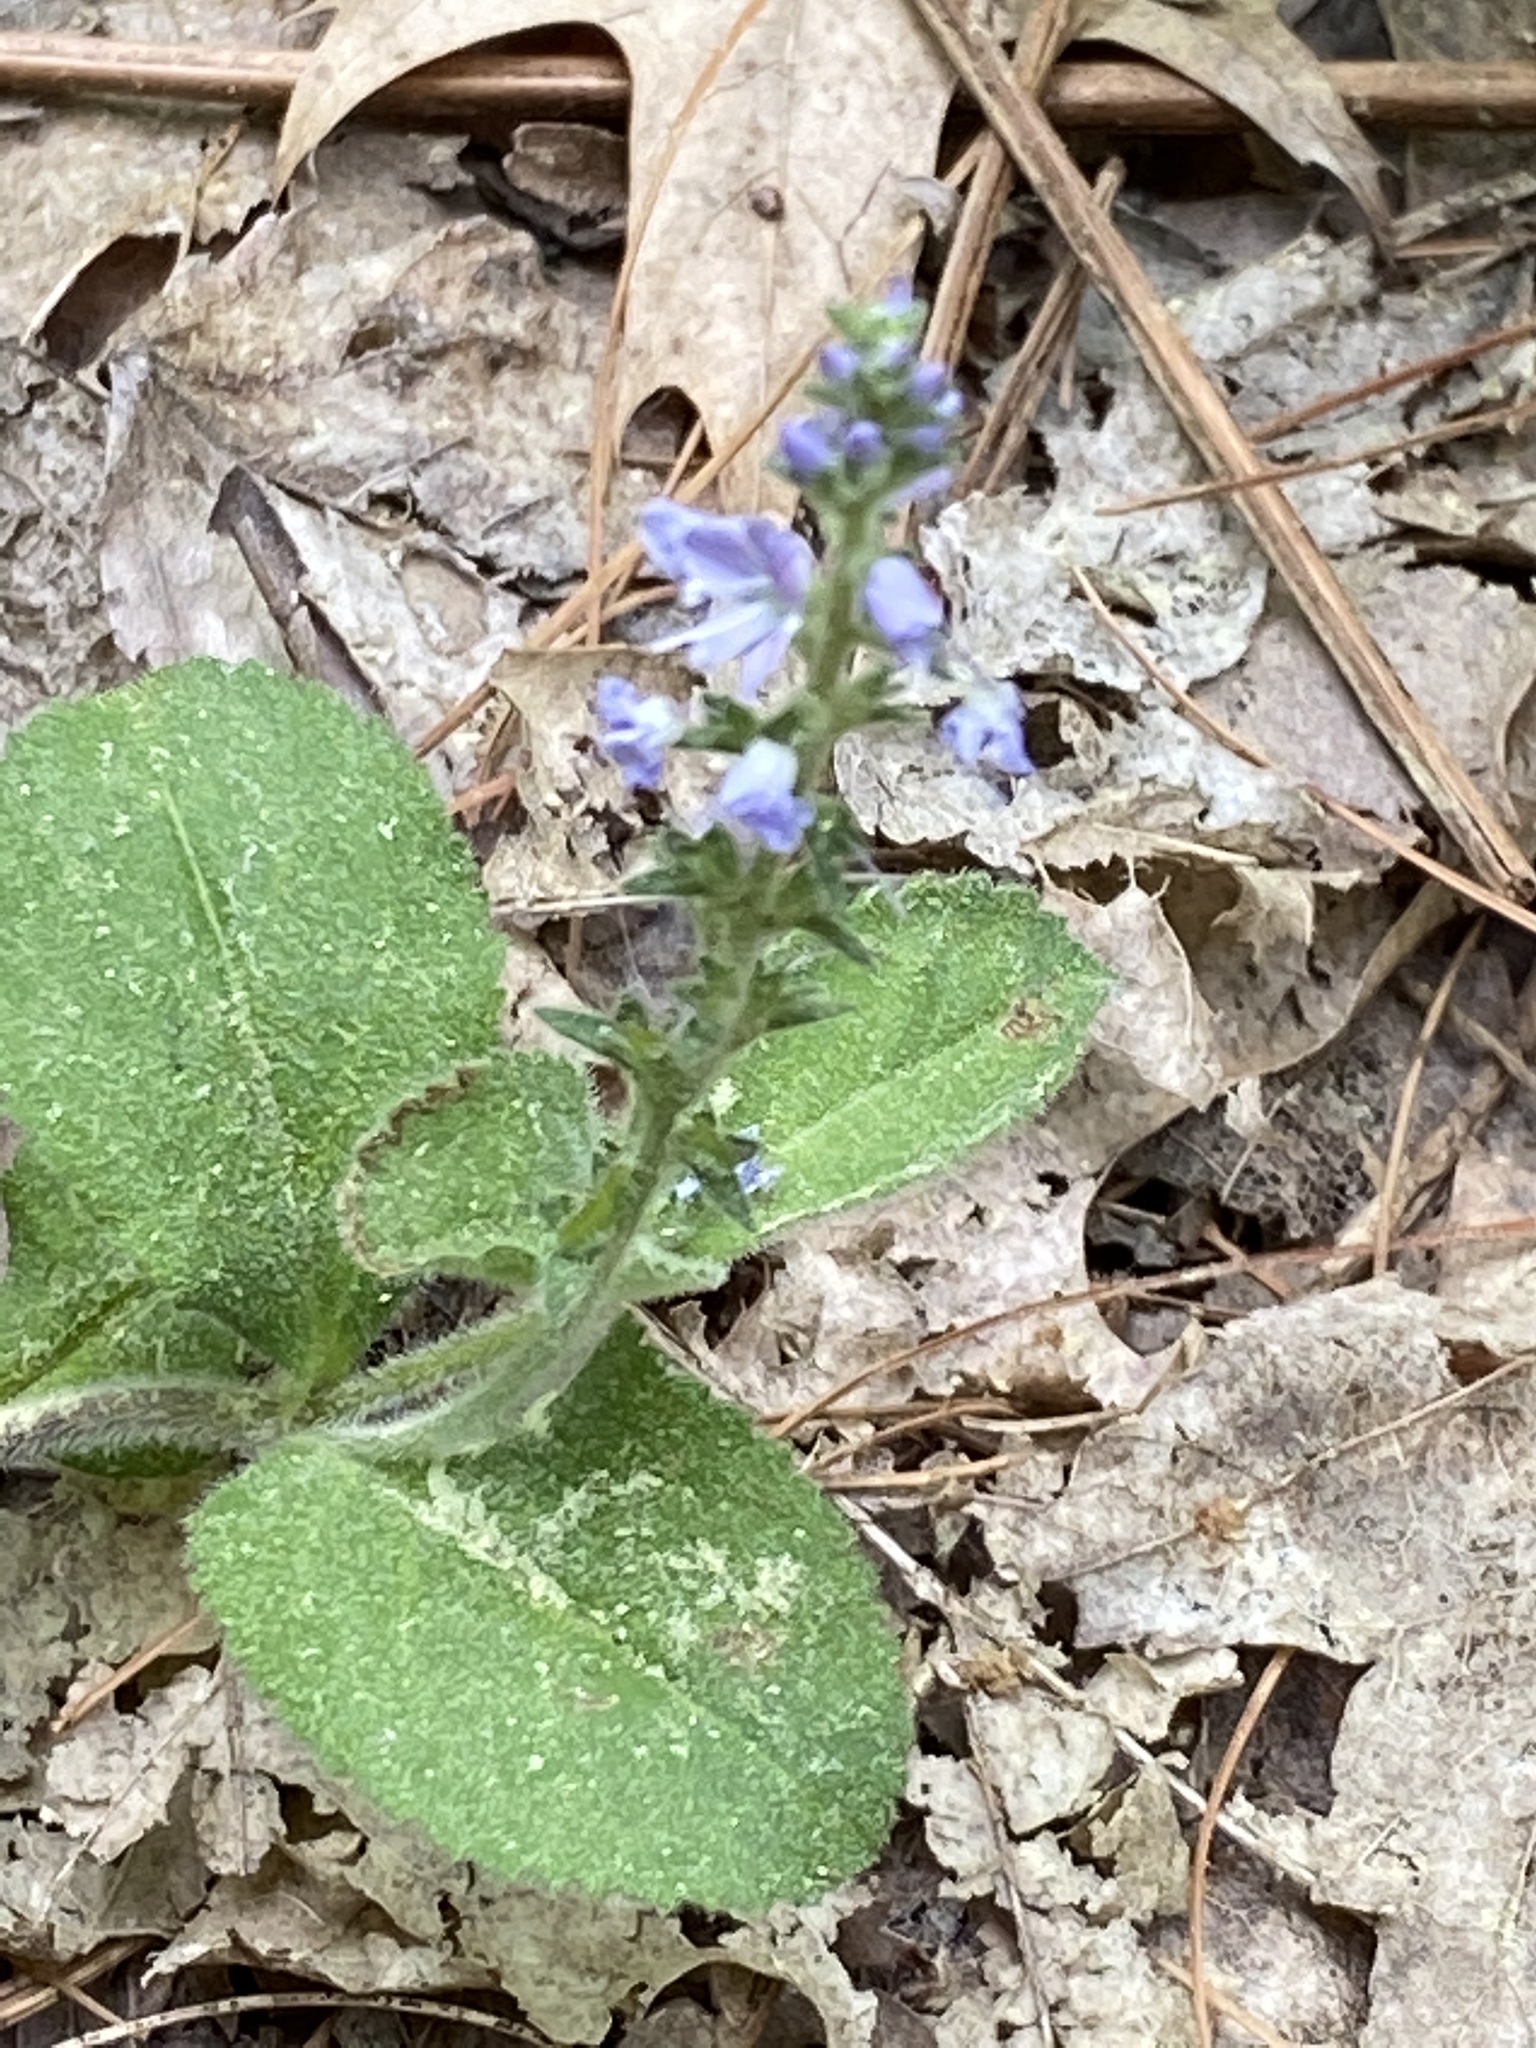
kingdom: Plantae
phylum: Tracheophyta
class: Magnoliopsida
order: Lamiales
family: Plantaginaceae
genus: Veronica
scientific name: Veronica officinalis
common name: Common speedwell
